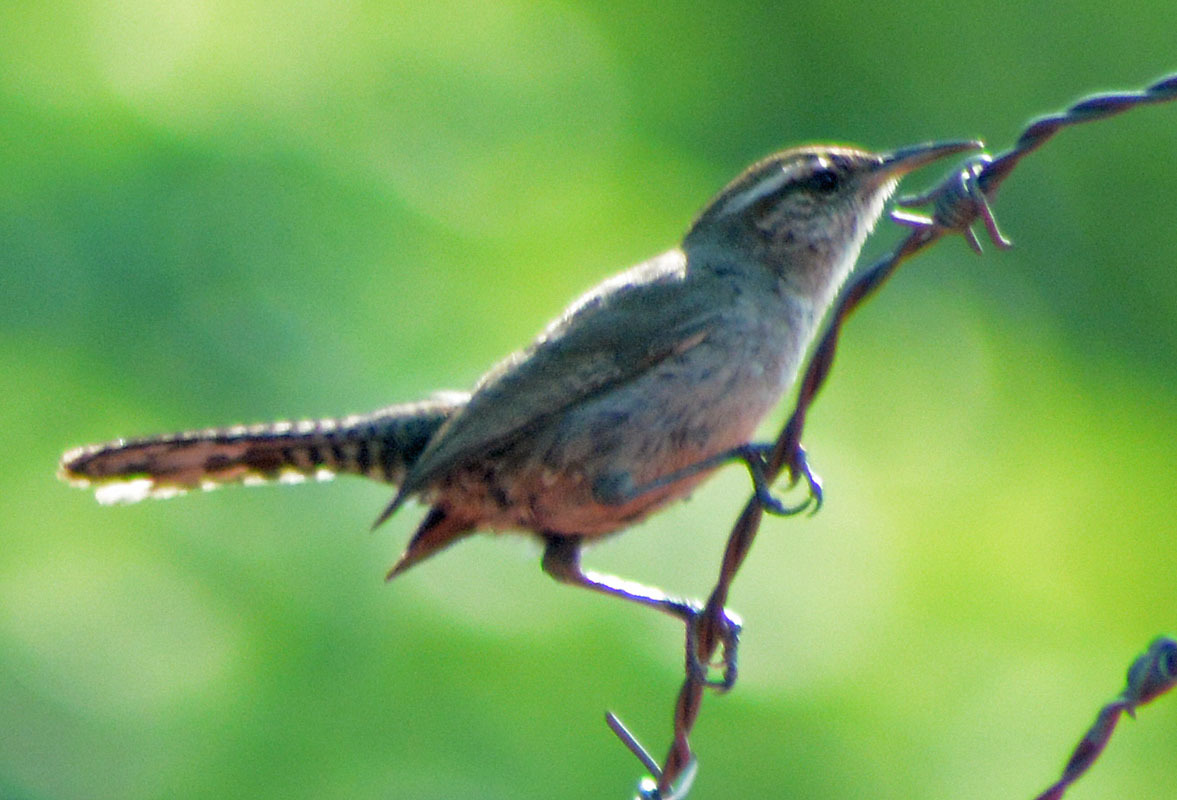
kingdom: Animalia
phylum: Chordata
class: Aves
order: Passeriformes
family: Troglodytidae
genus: Thryomanes
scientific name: Thryomanes bewickii
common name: Bewick's wren
